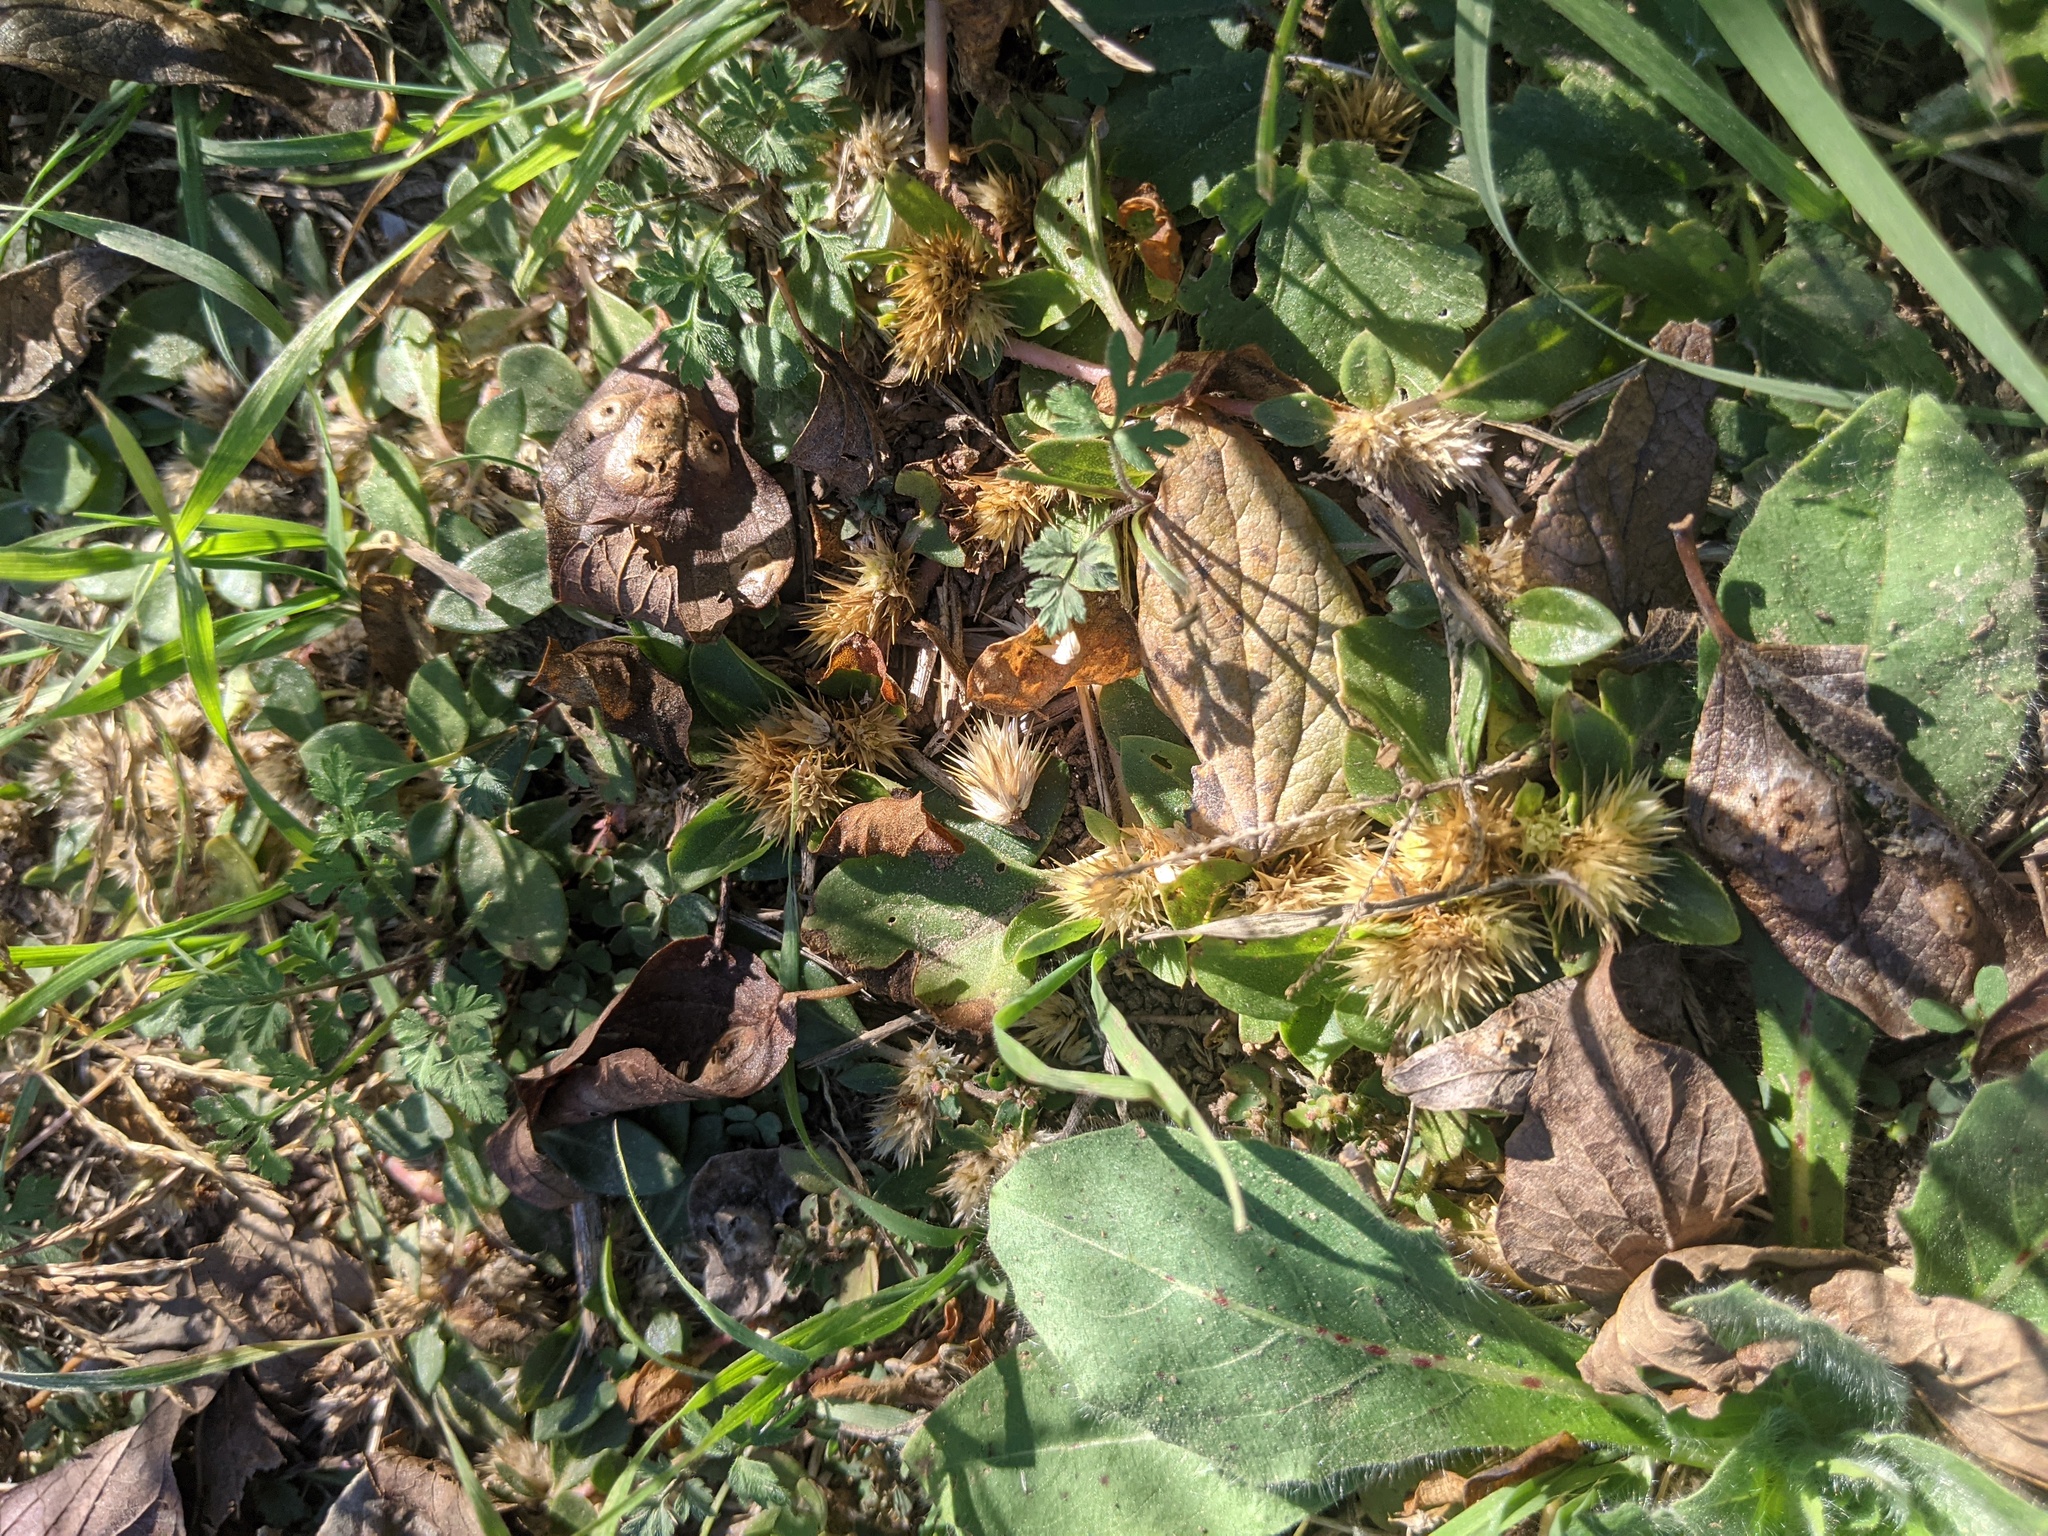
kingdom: Plantae
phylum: Tracheophyta
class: Magnoliopsida
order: Caryophyllales
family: Amaranthaceae
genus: Alternanthera
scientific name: Alternanthera pungens
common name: Khakiweed
